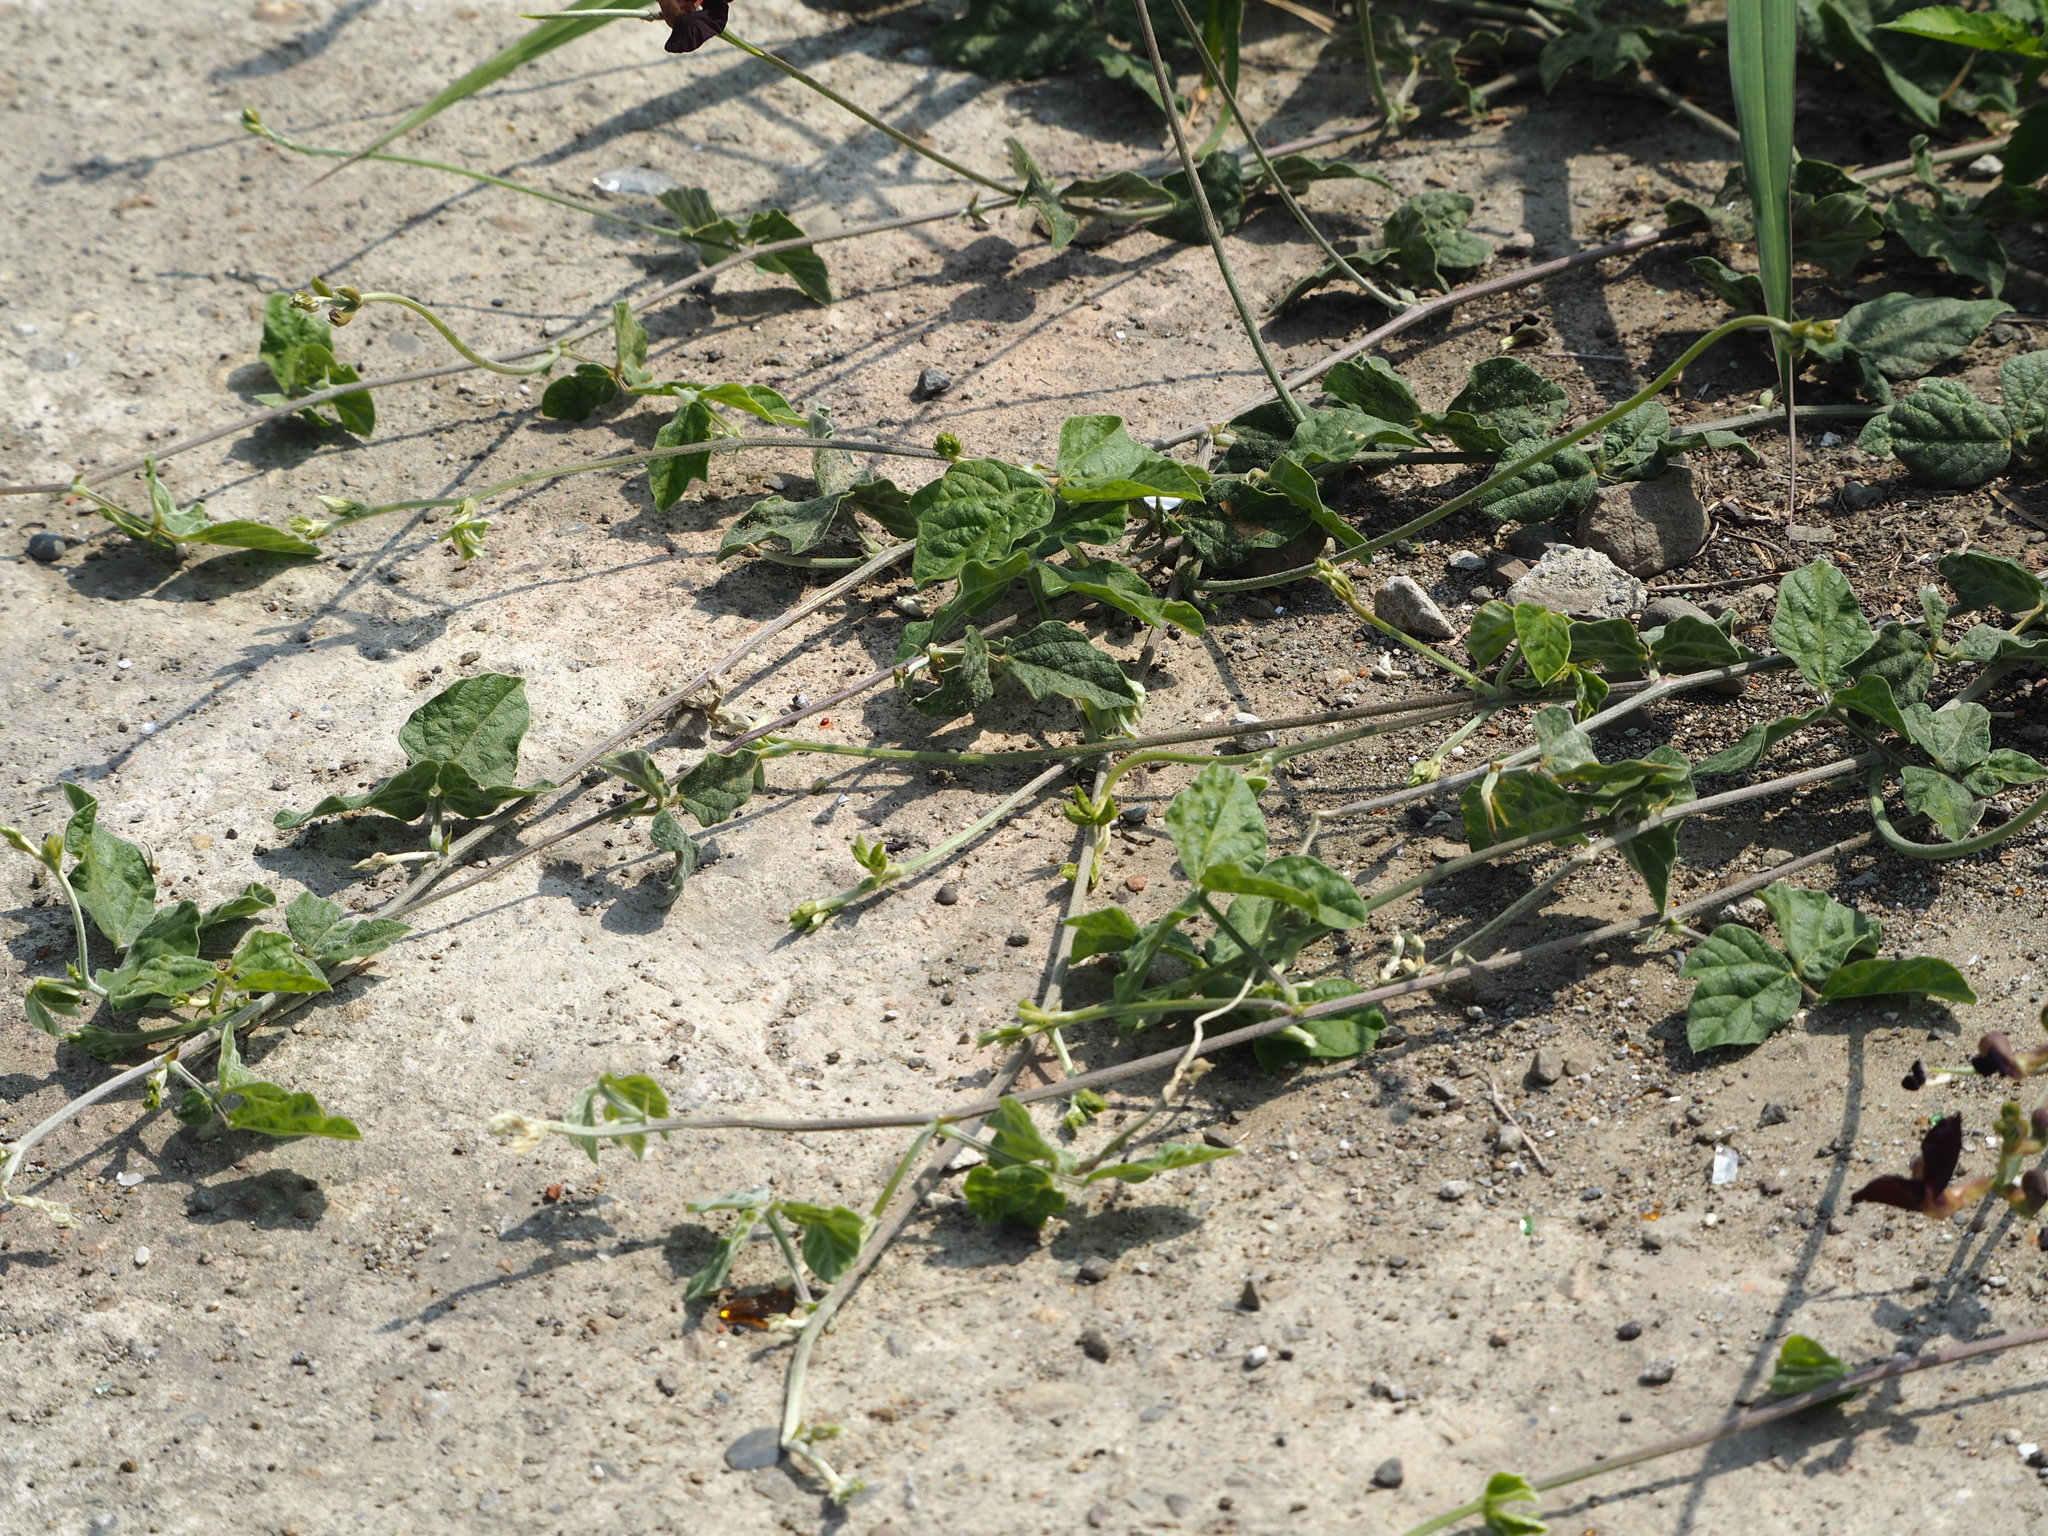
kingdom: Plantae
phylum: Tracheophyta
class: Magnoliopsida
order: Fabales
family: Fabaceae
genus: Macroptilium
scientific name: Macroptilium atropurpureum
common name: Purple bushbean
